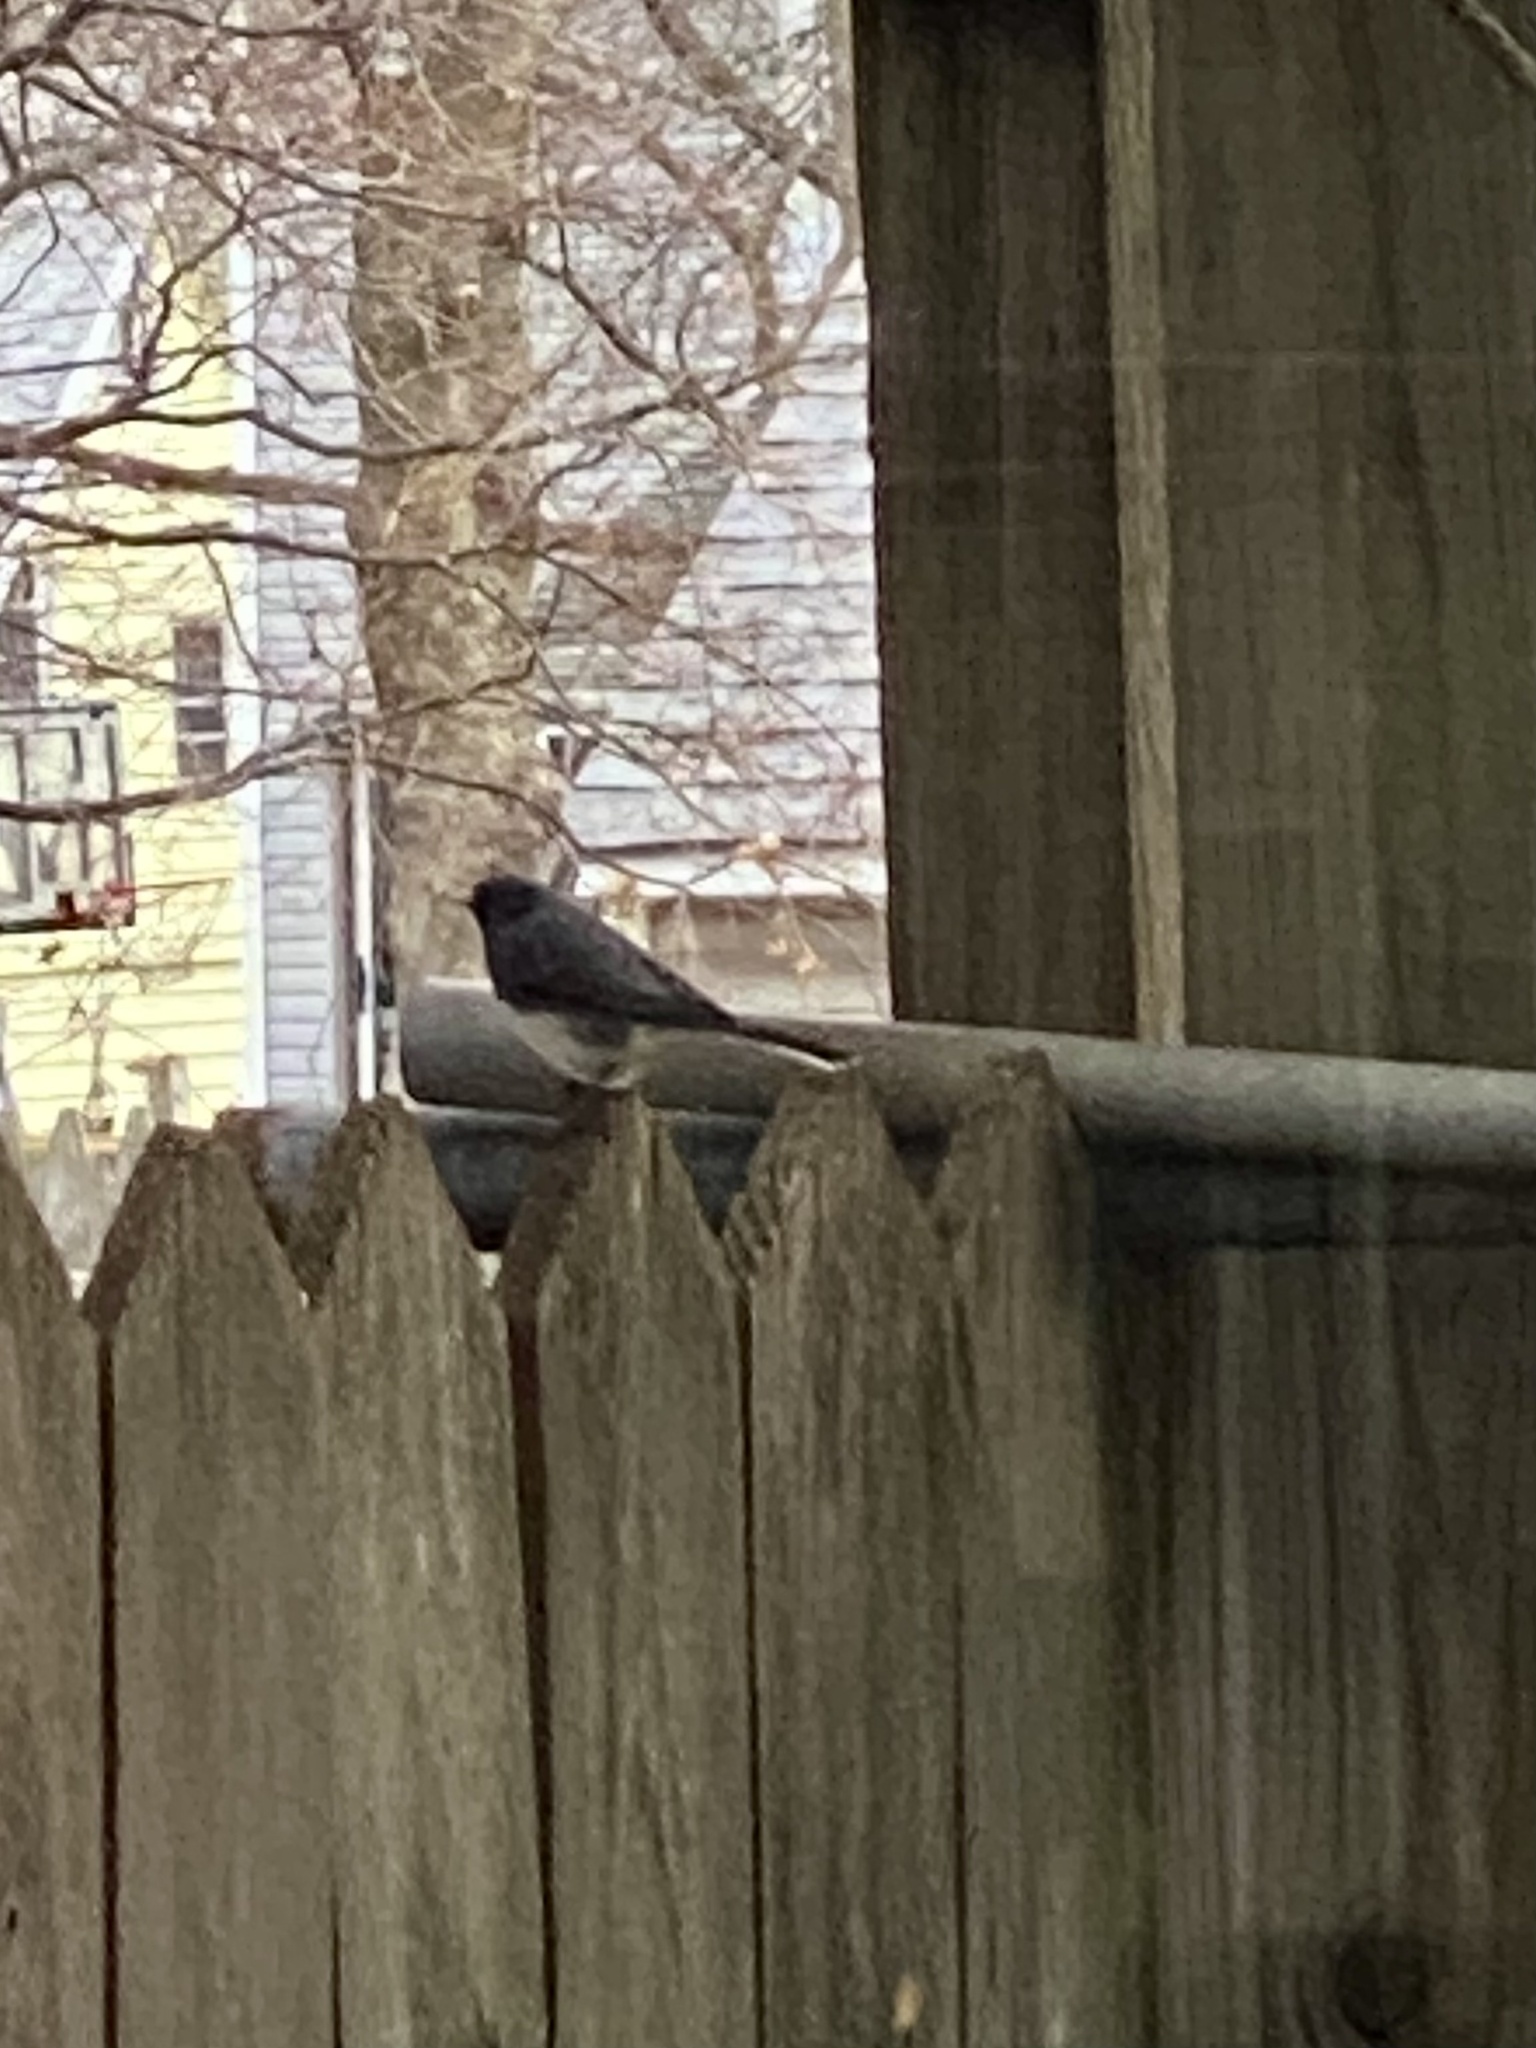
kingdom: Animalia
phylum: Chordata
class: Aves
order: Passeriformes
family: Passerellidae
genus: Junco
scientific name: Junco hyemalis
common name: Dark-eyed junco
